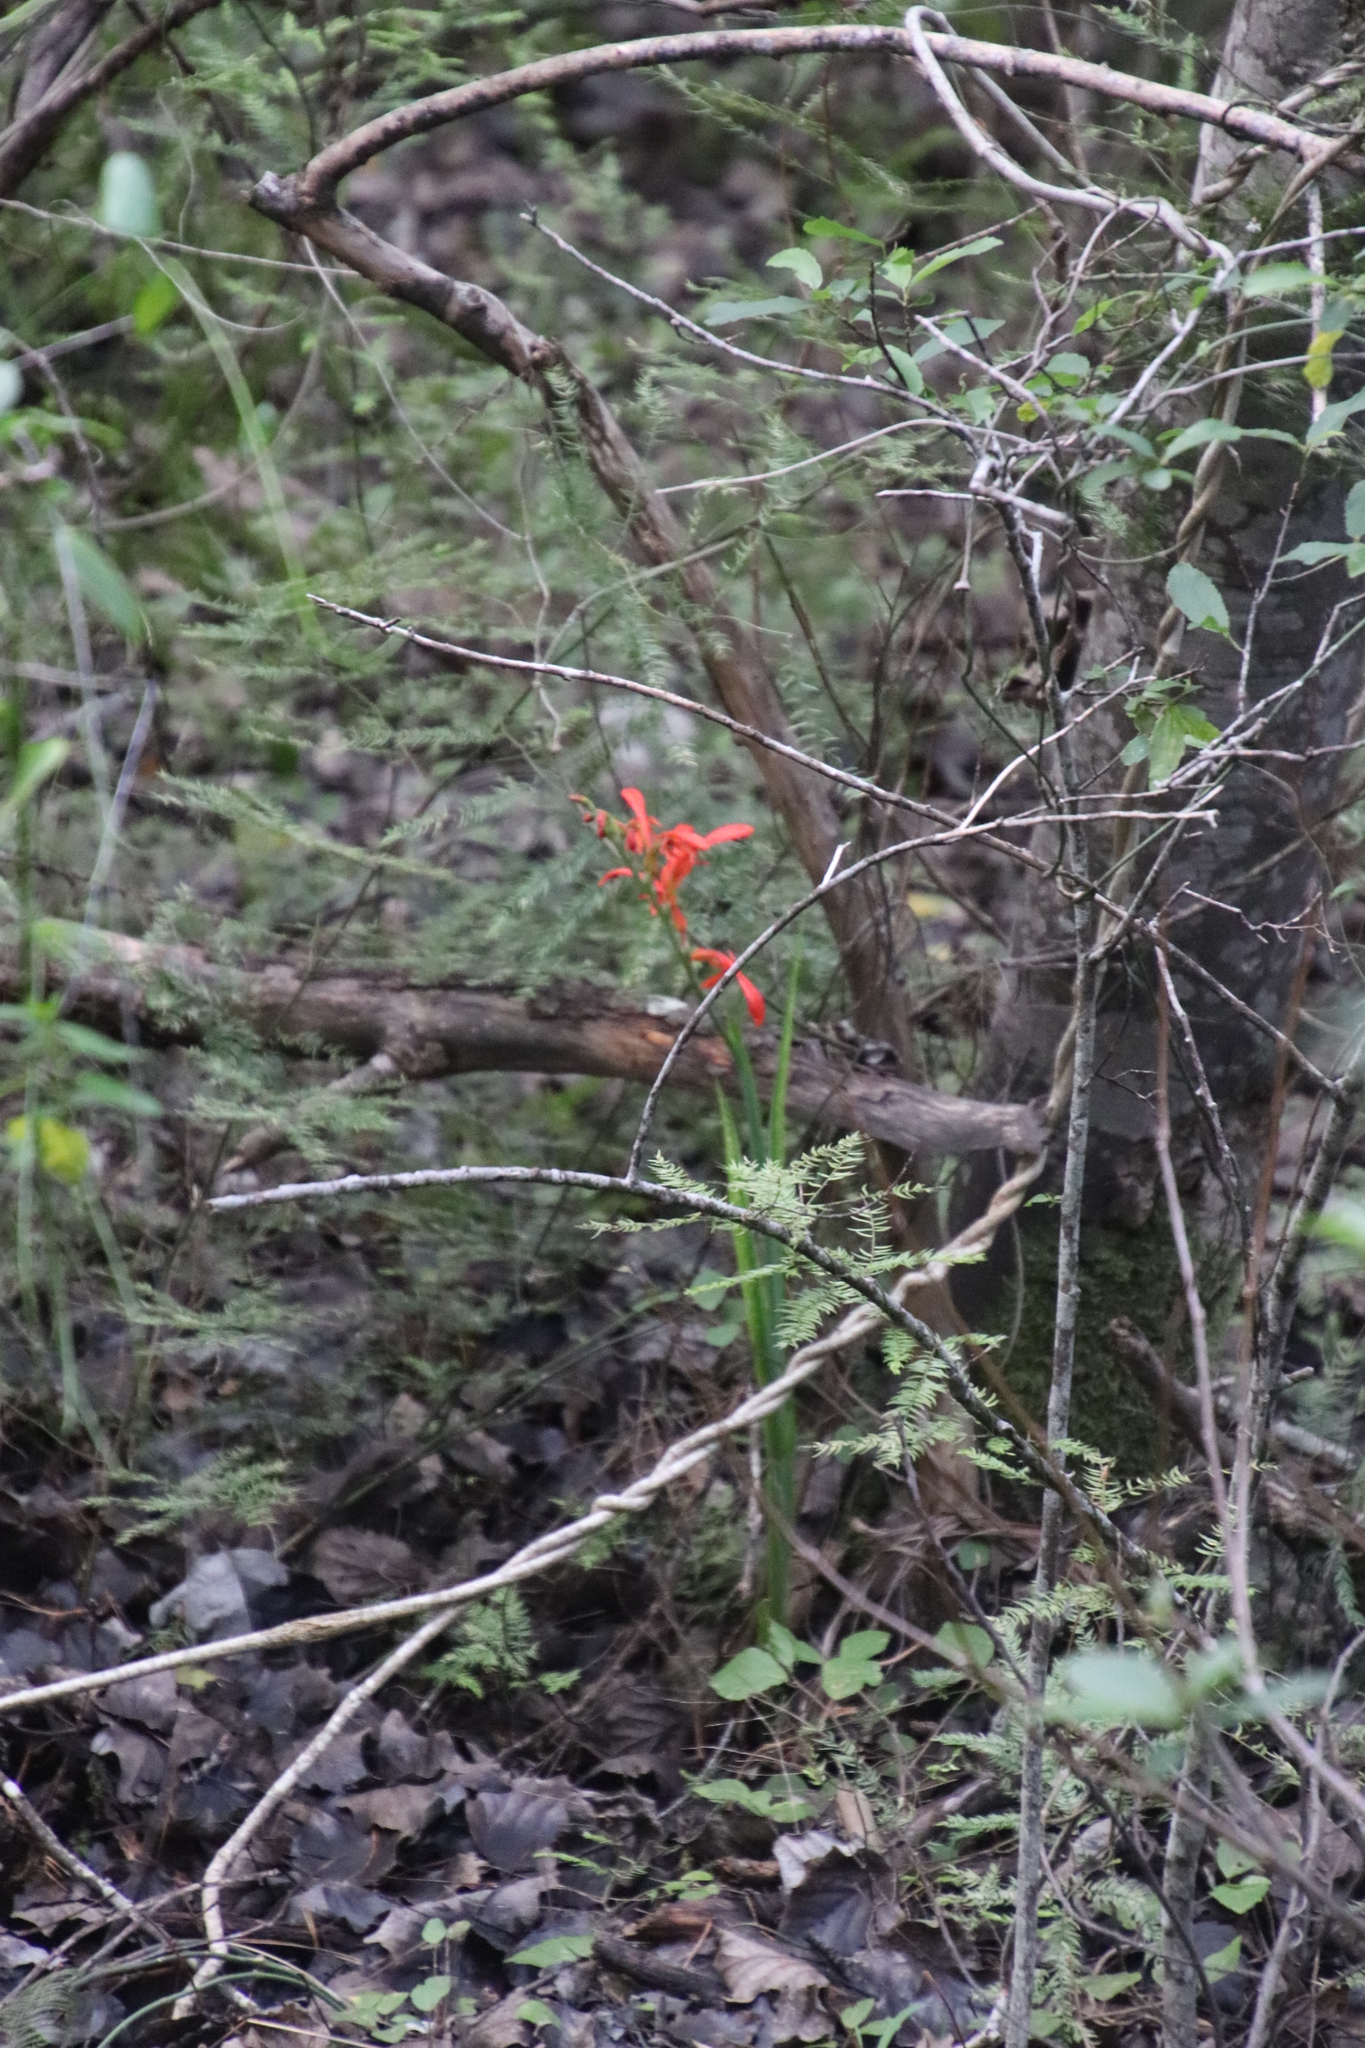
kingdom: Plantae
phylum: Tracheophyta
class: Liliopsida
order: Asparagales
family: Iridaceae
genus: Chasmanthe
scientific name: Chasmanthe aethiopica
